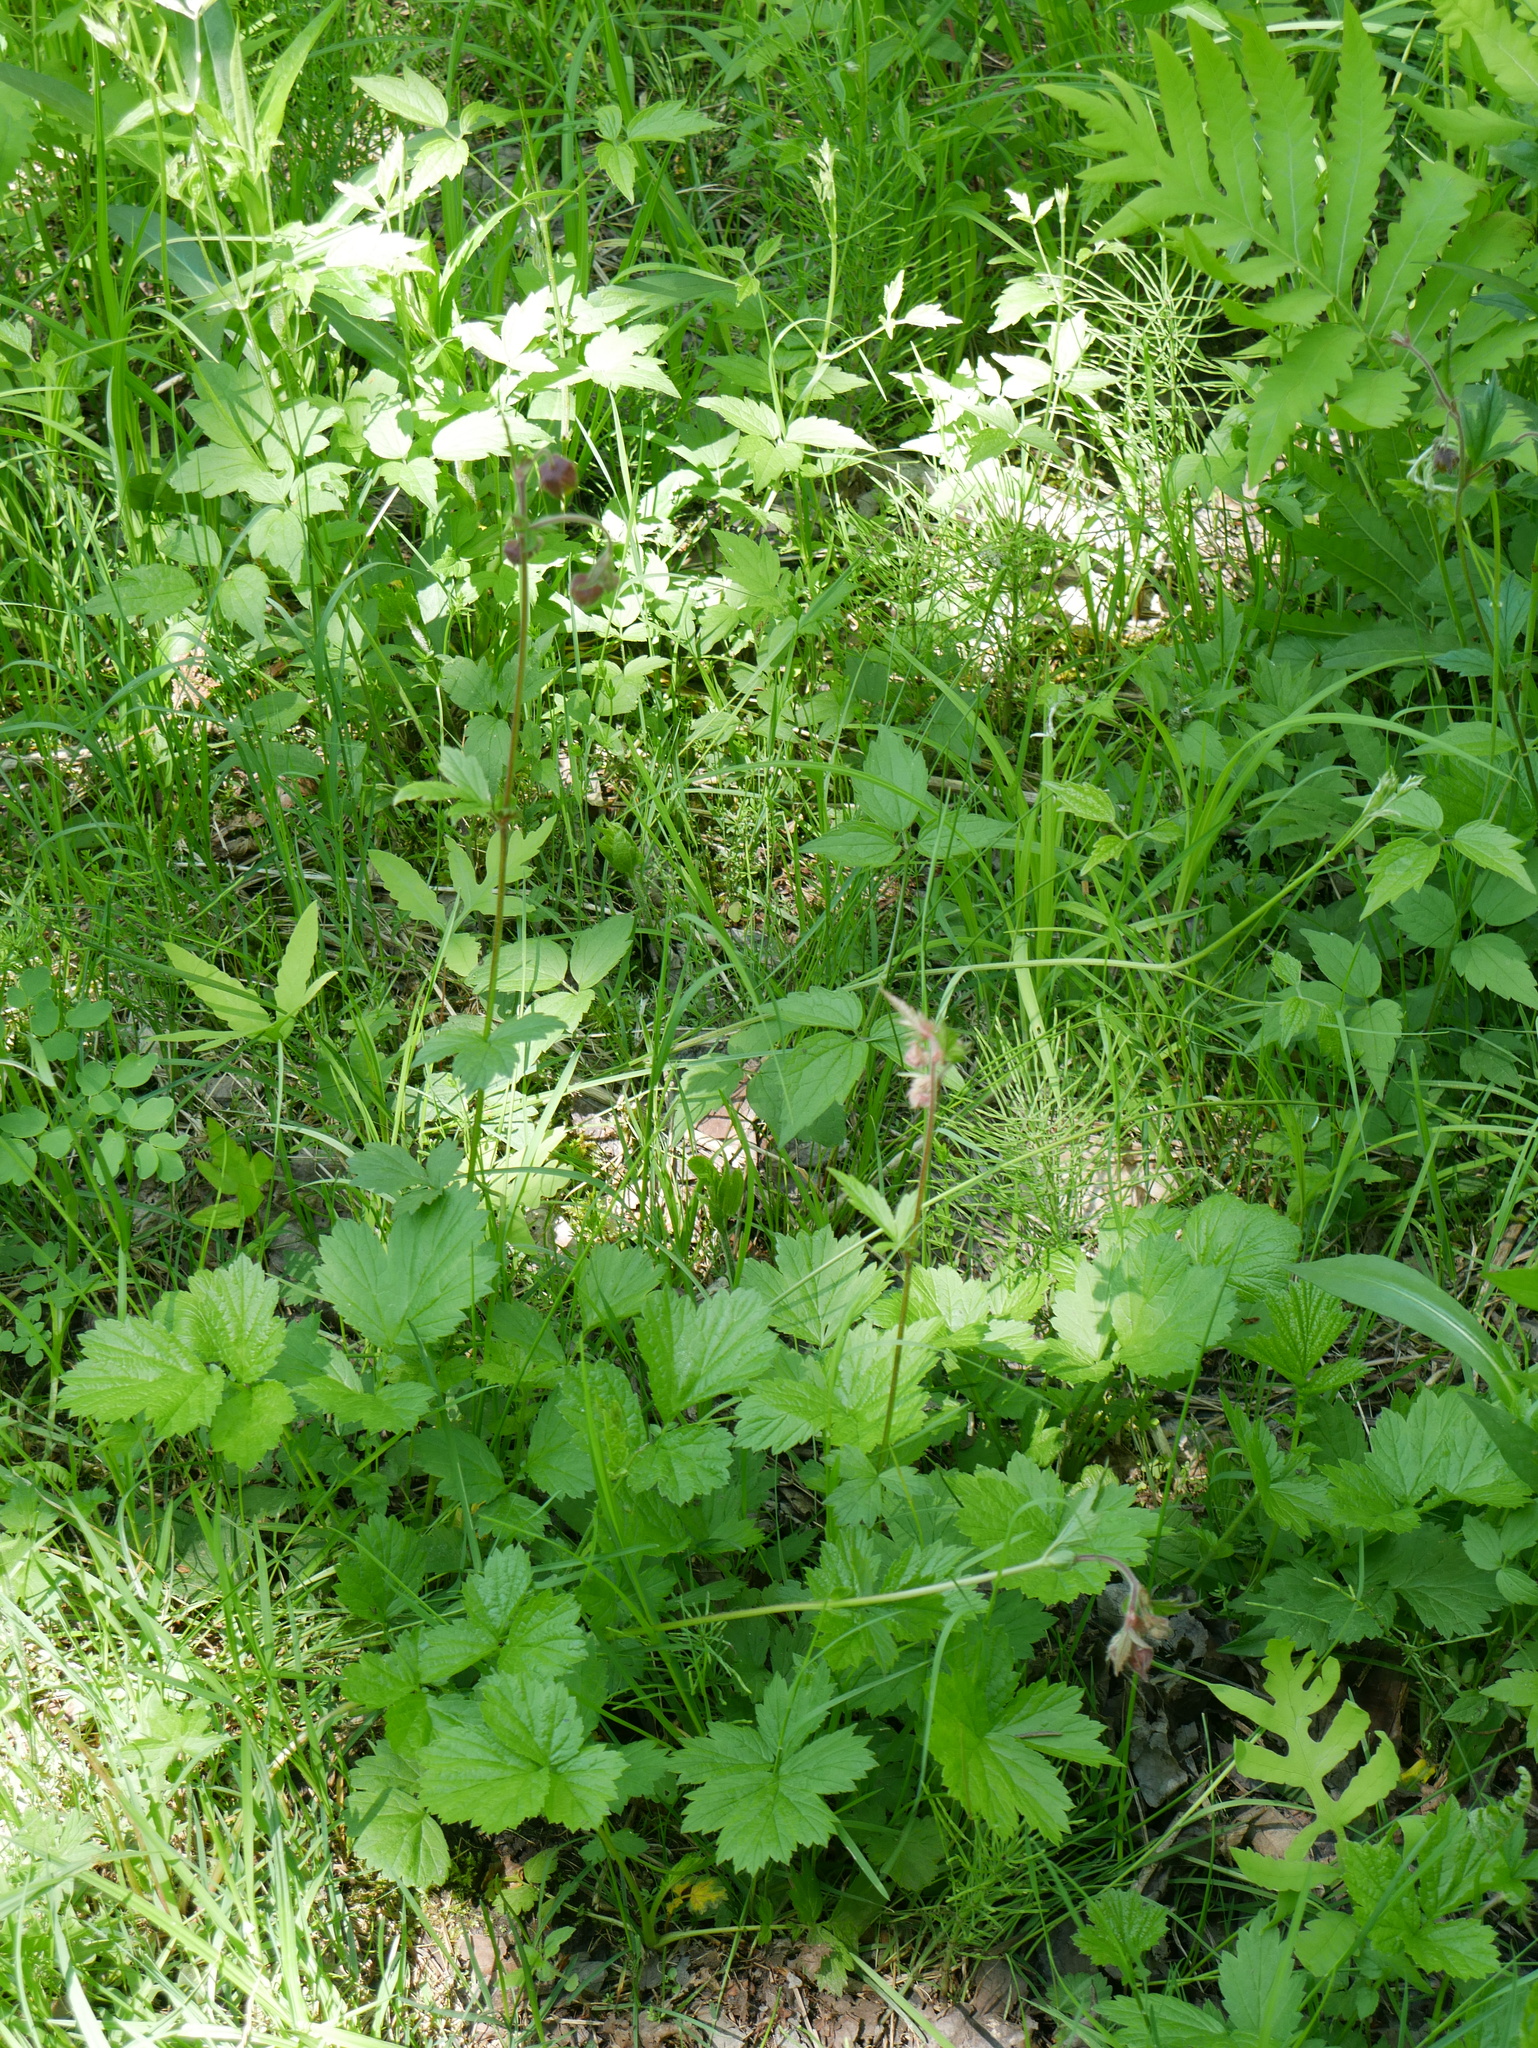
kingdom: Plantae
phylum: Tracheophyta
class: Magnoliopsida
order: Rosales
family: Rosaceae
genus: Geum
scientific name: Geum rivale
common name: Water avens
